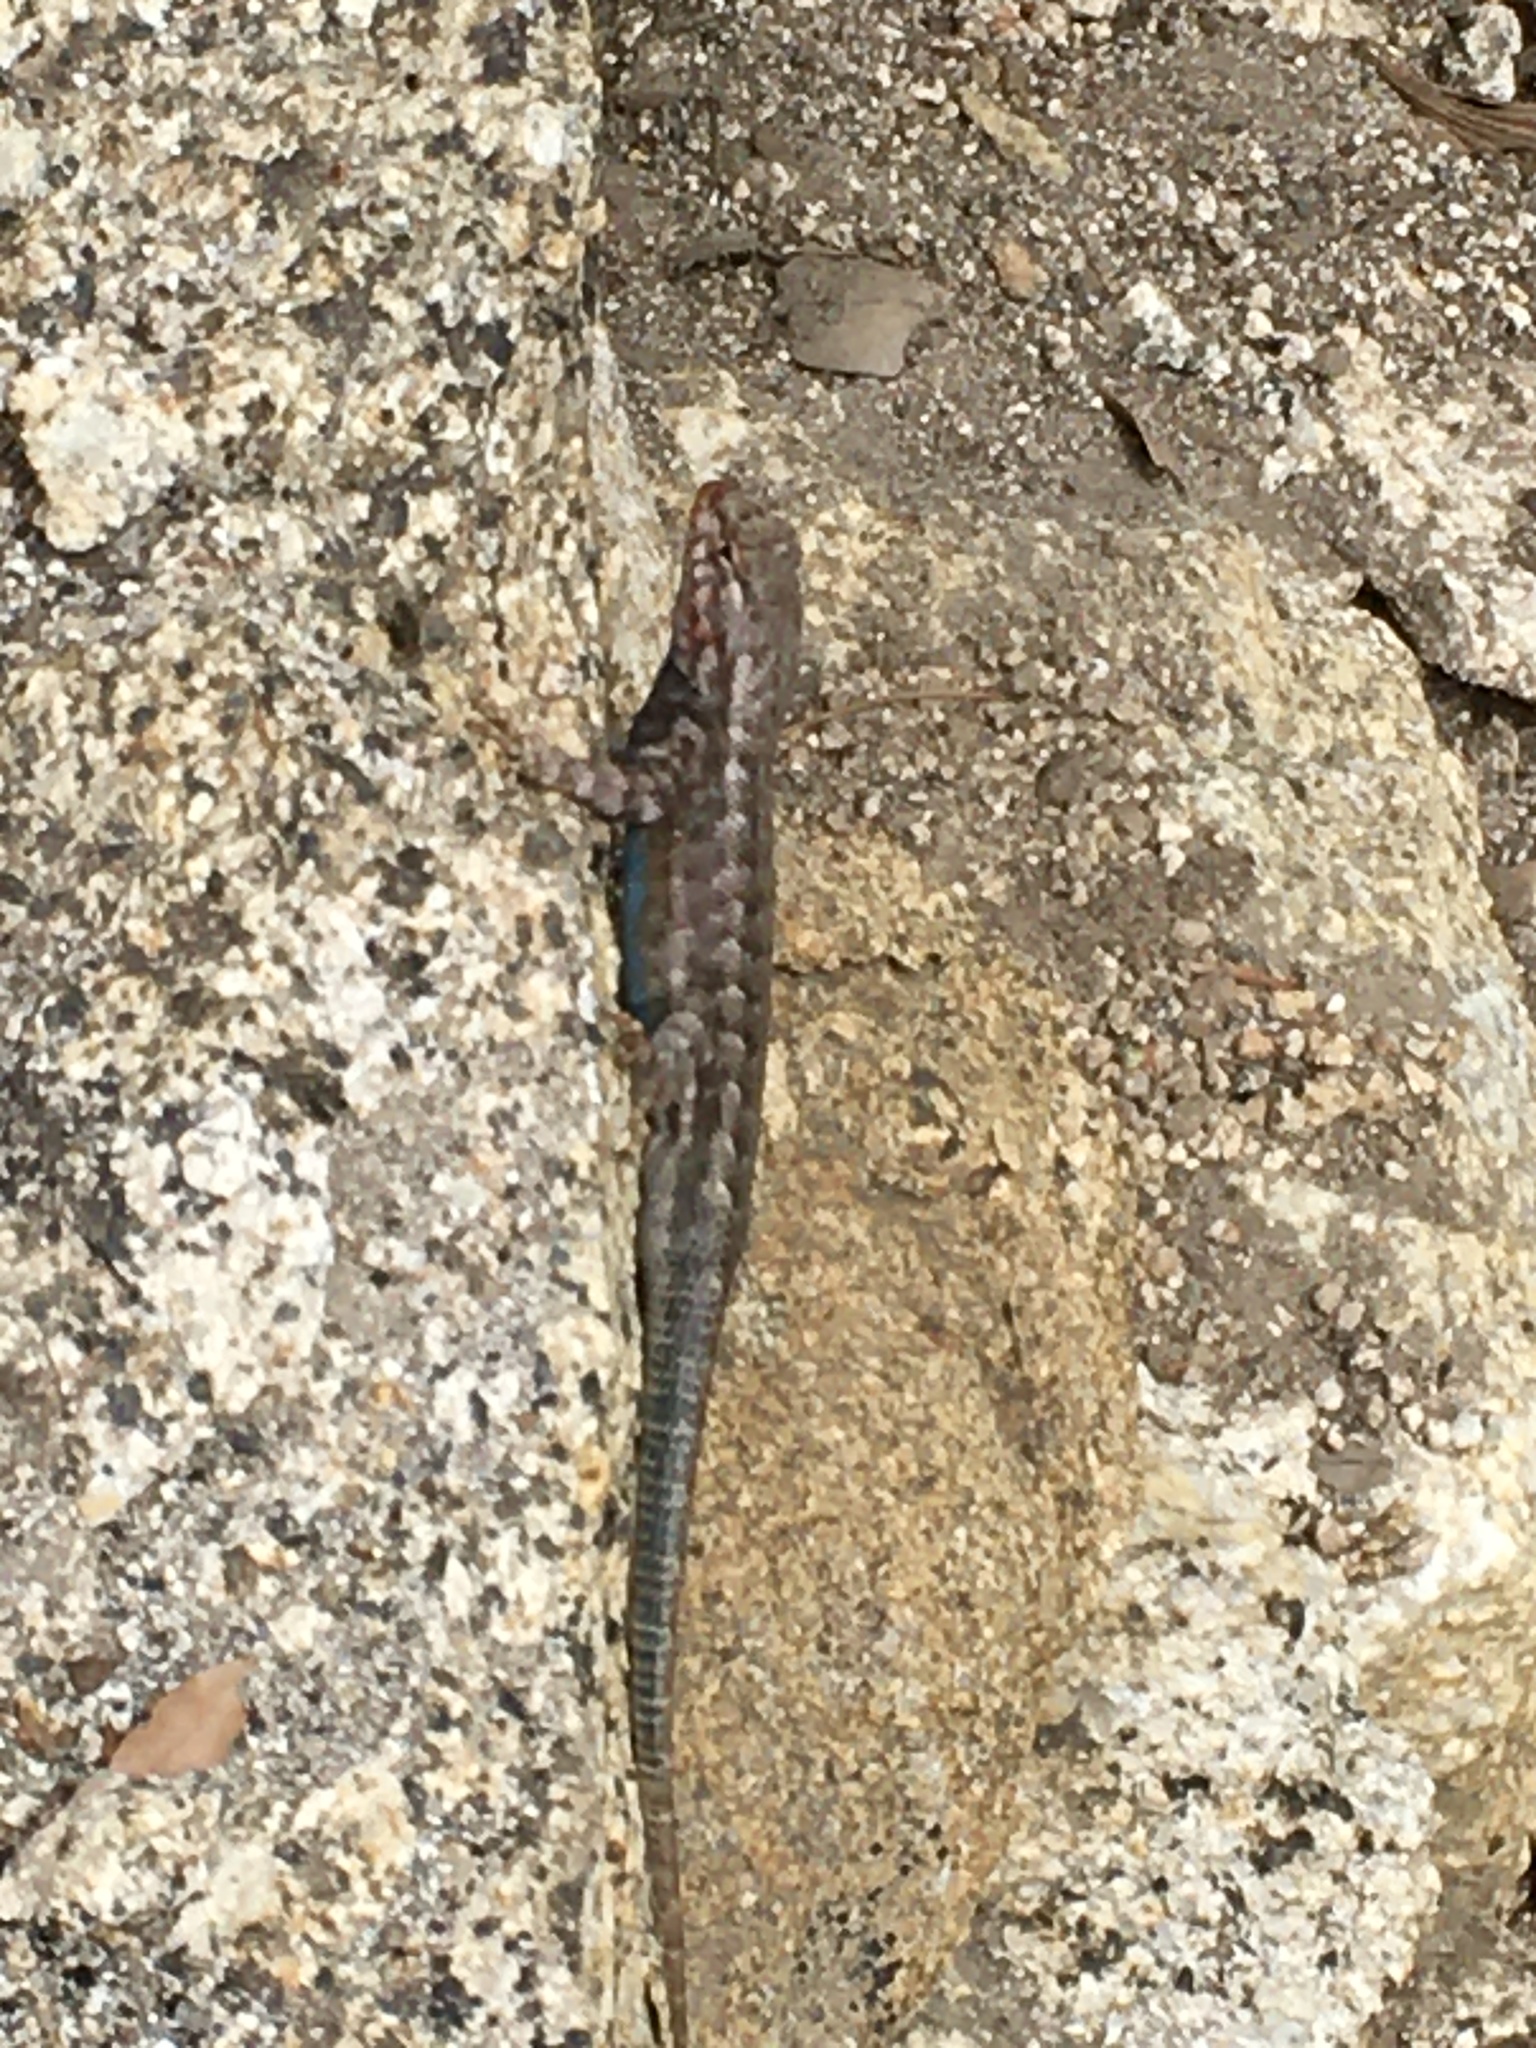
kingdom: Animalia
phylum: Chordata
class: Squamata
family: Phrynosomatidae
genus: Sceloporus
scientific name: Sceloporus graciosus
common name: Sagebrush lizard
